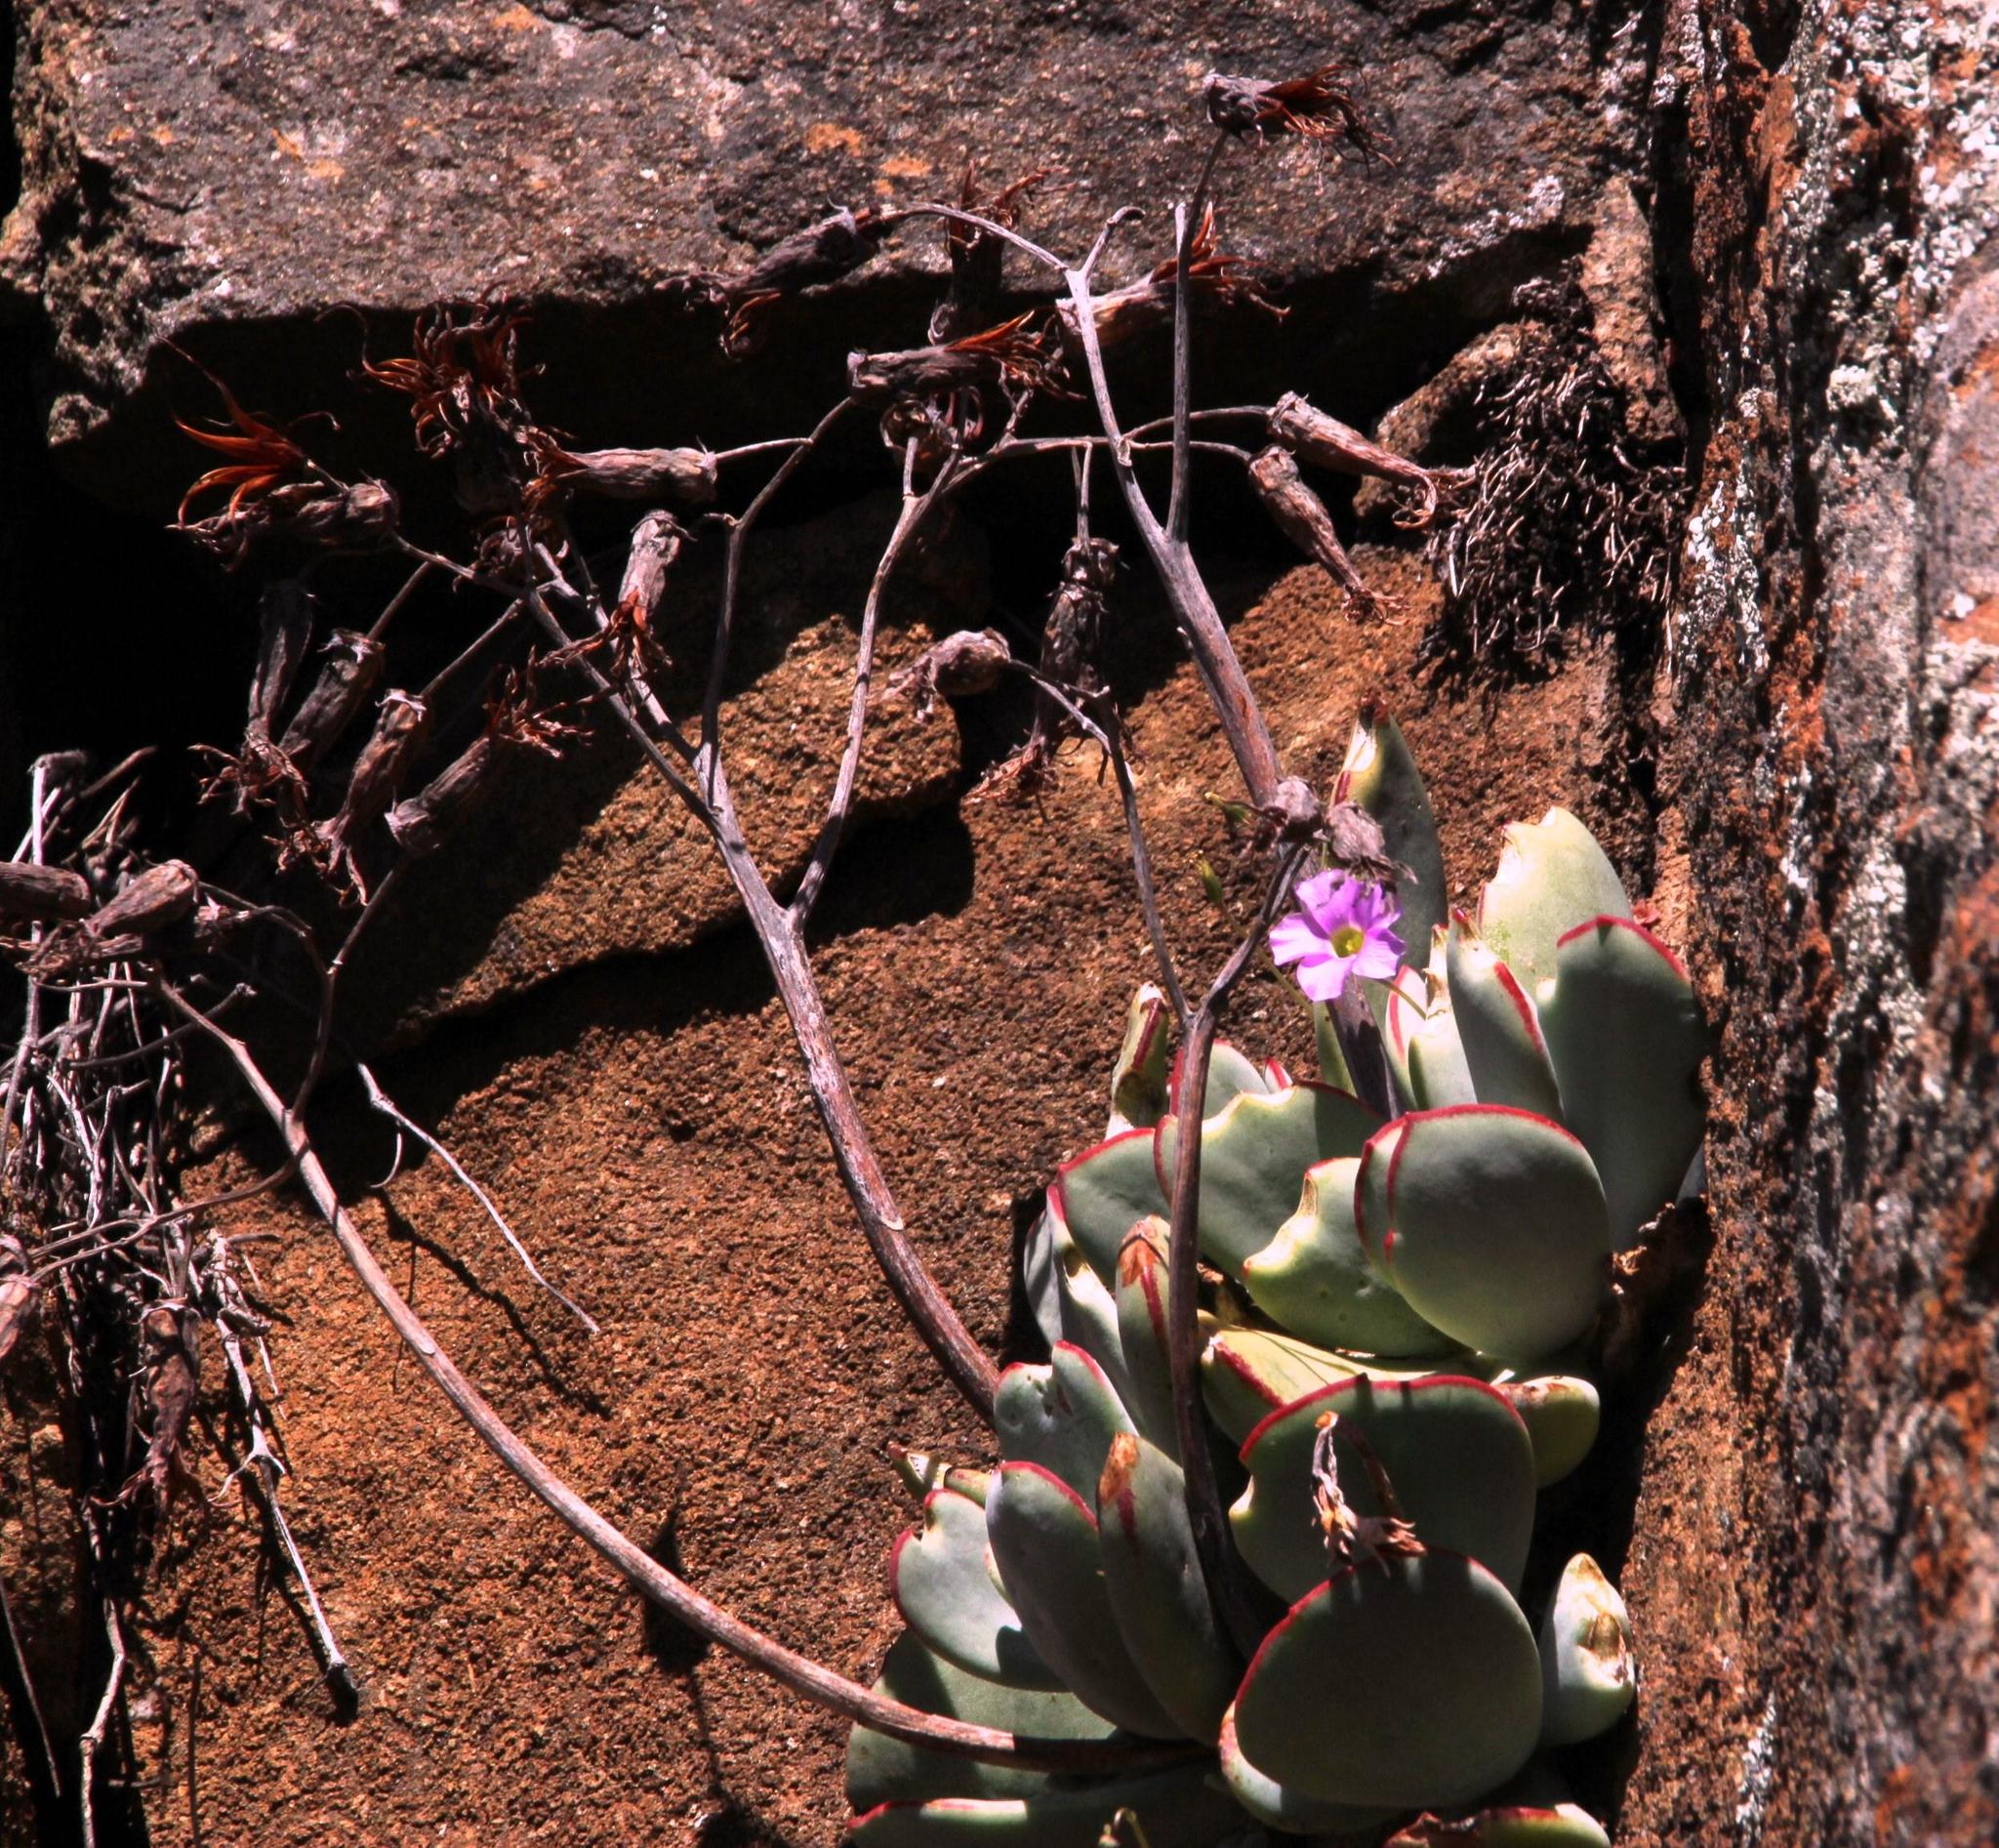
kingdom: Plantae
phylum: Tracheophyta
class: Magnoliopsida
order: Saxifragales
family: Crassulaceae
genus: Cotyledon
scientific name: Cotyledon orbiculata
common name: Pig's ear
